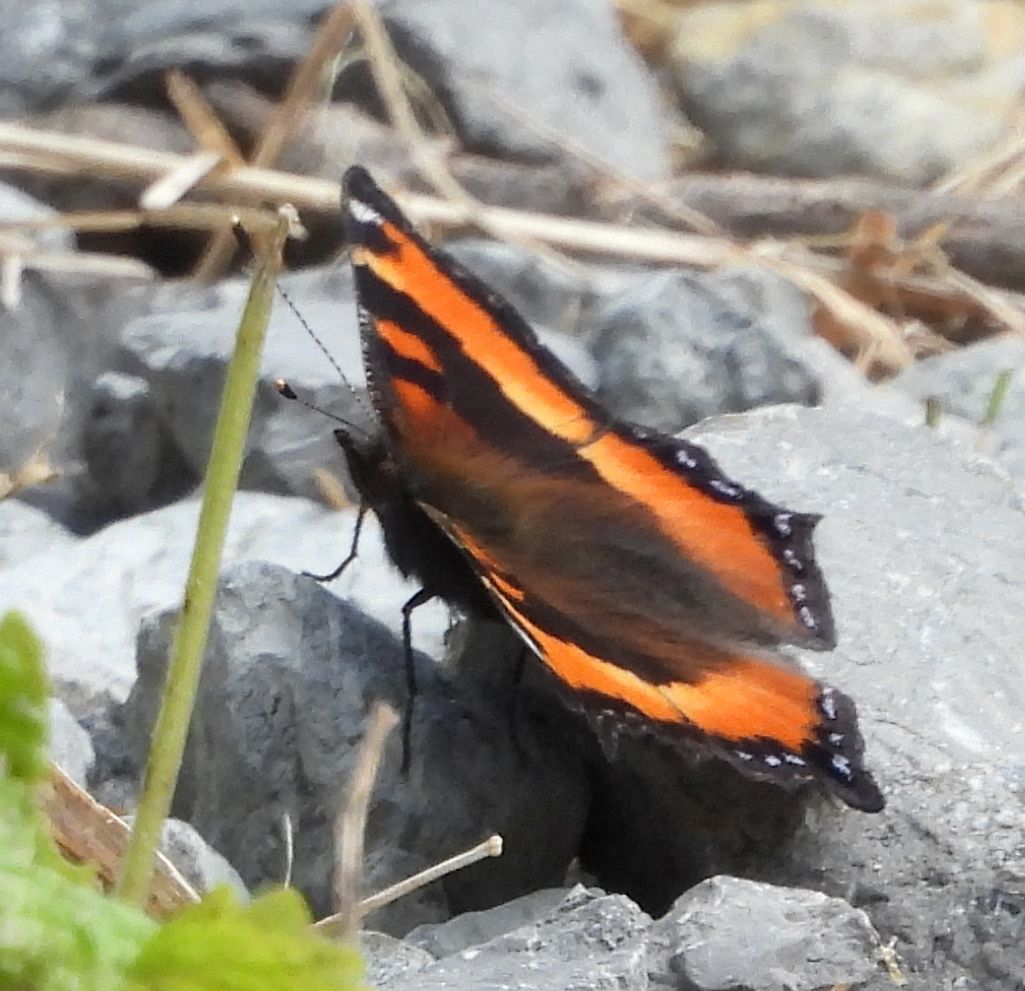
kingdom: Animalia
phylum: Arthropoda
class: Insecta
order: Lepidoptera
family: Nymphalidae
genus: Aglais
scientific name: Aglais milberti
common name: Milbert's tortoiseshell
